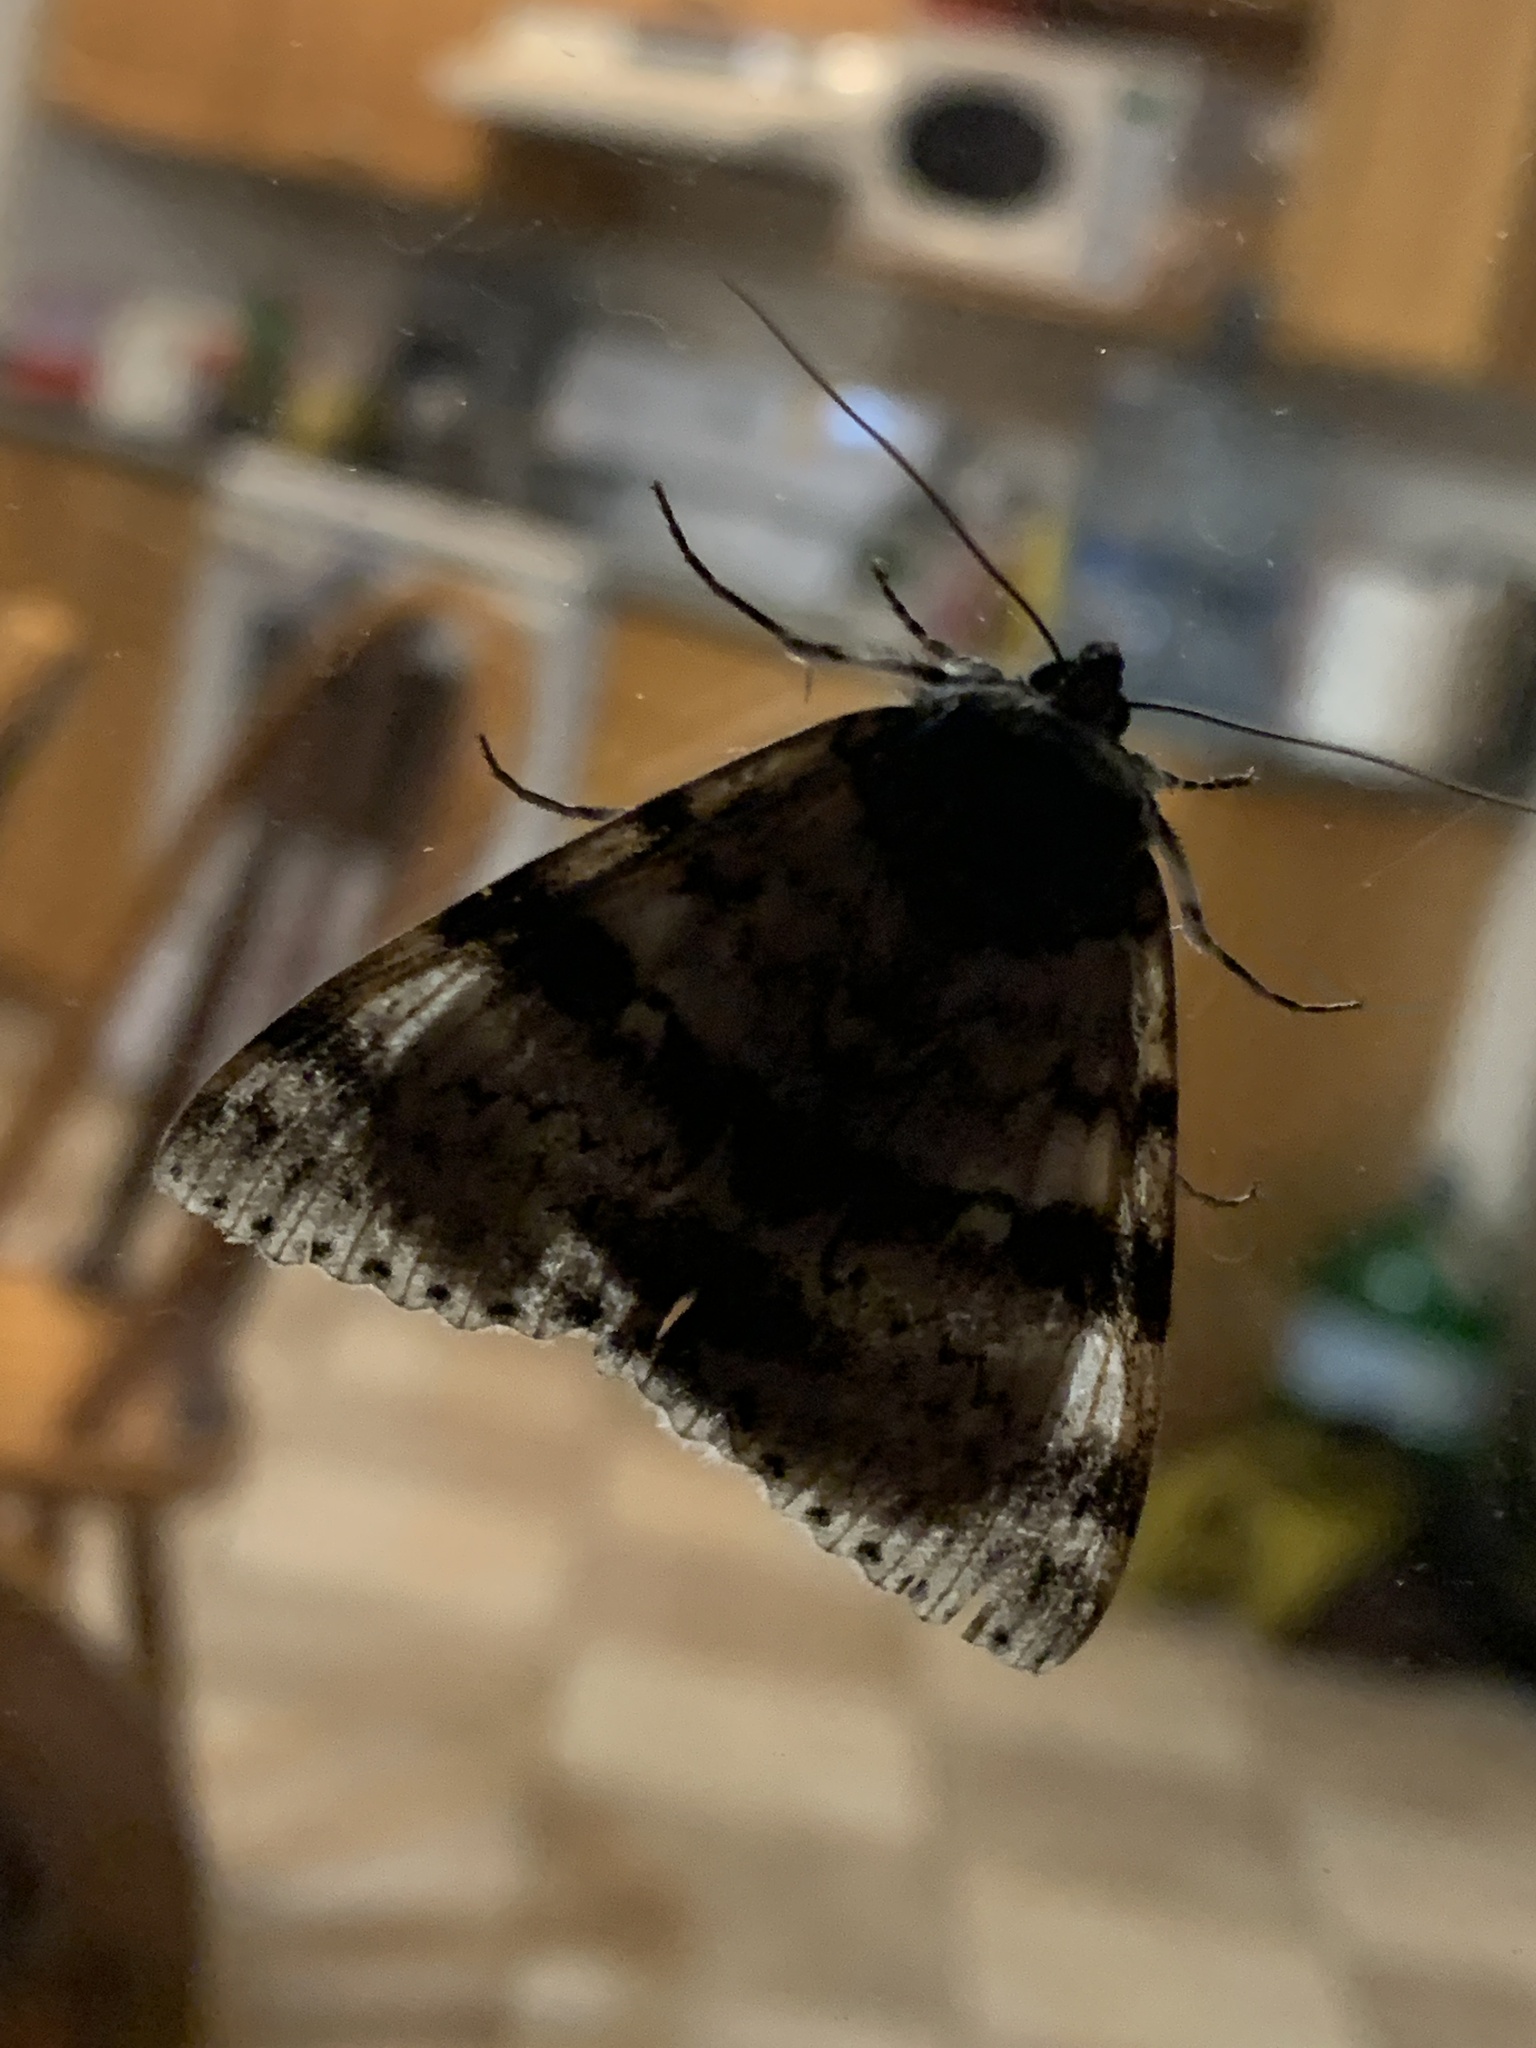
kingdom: Animalia
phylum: Arthropoda
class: Insecta
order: Lepidoptera
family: Erebidae
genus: Catocala
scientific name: Catocala relicta
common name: White underwing
